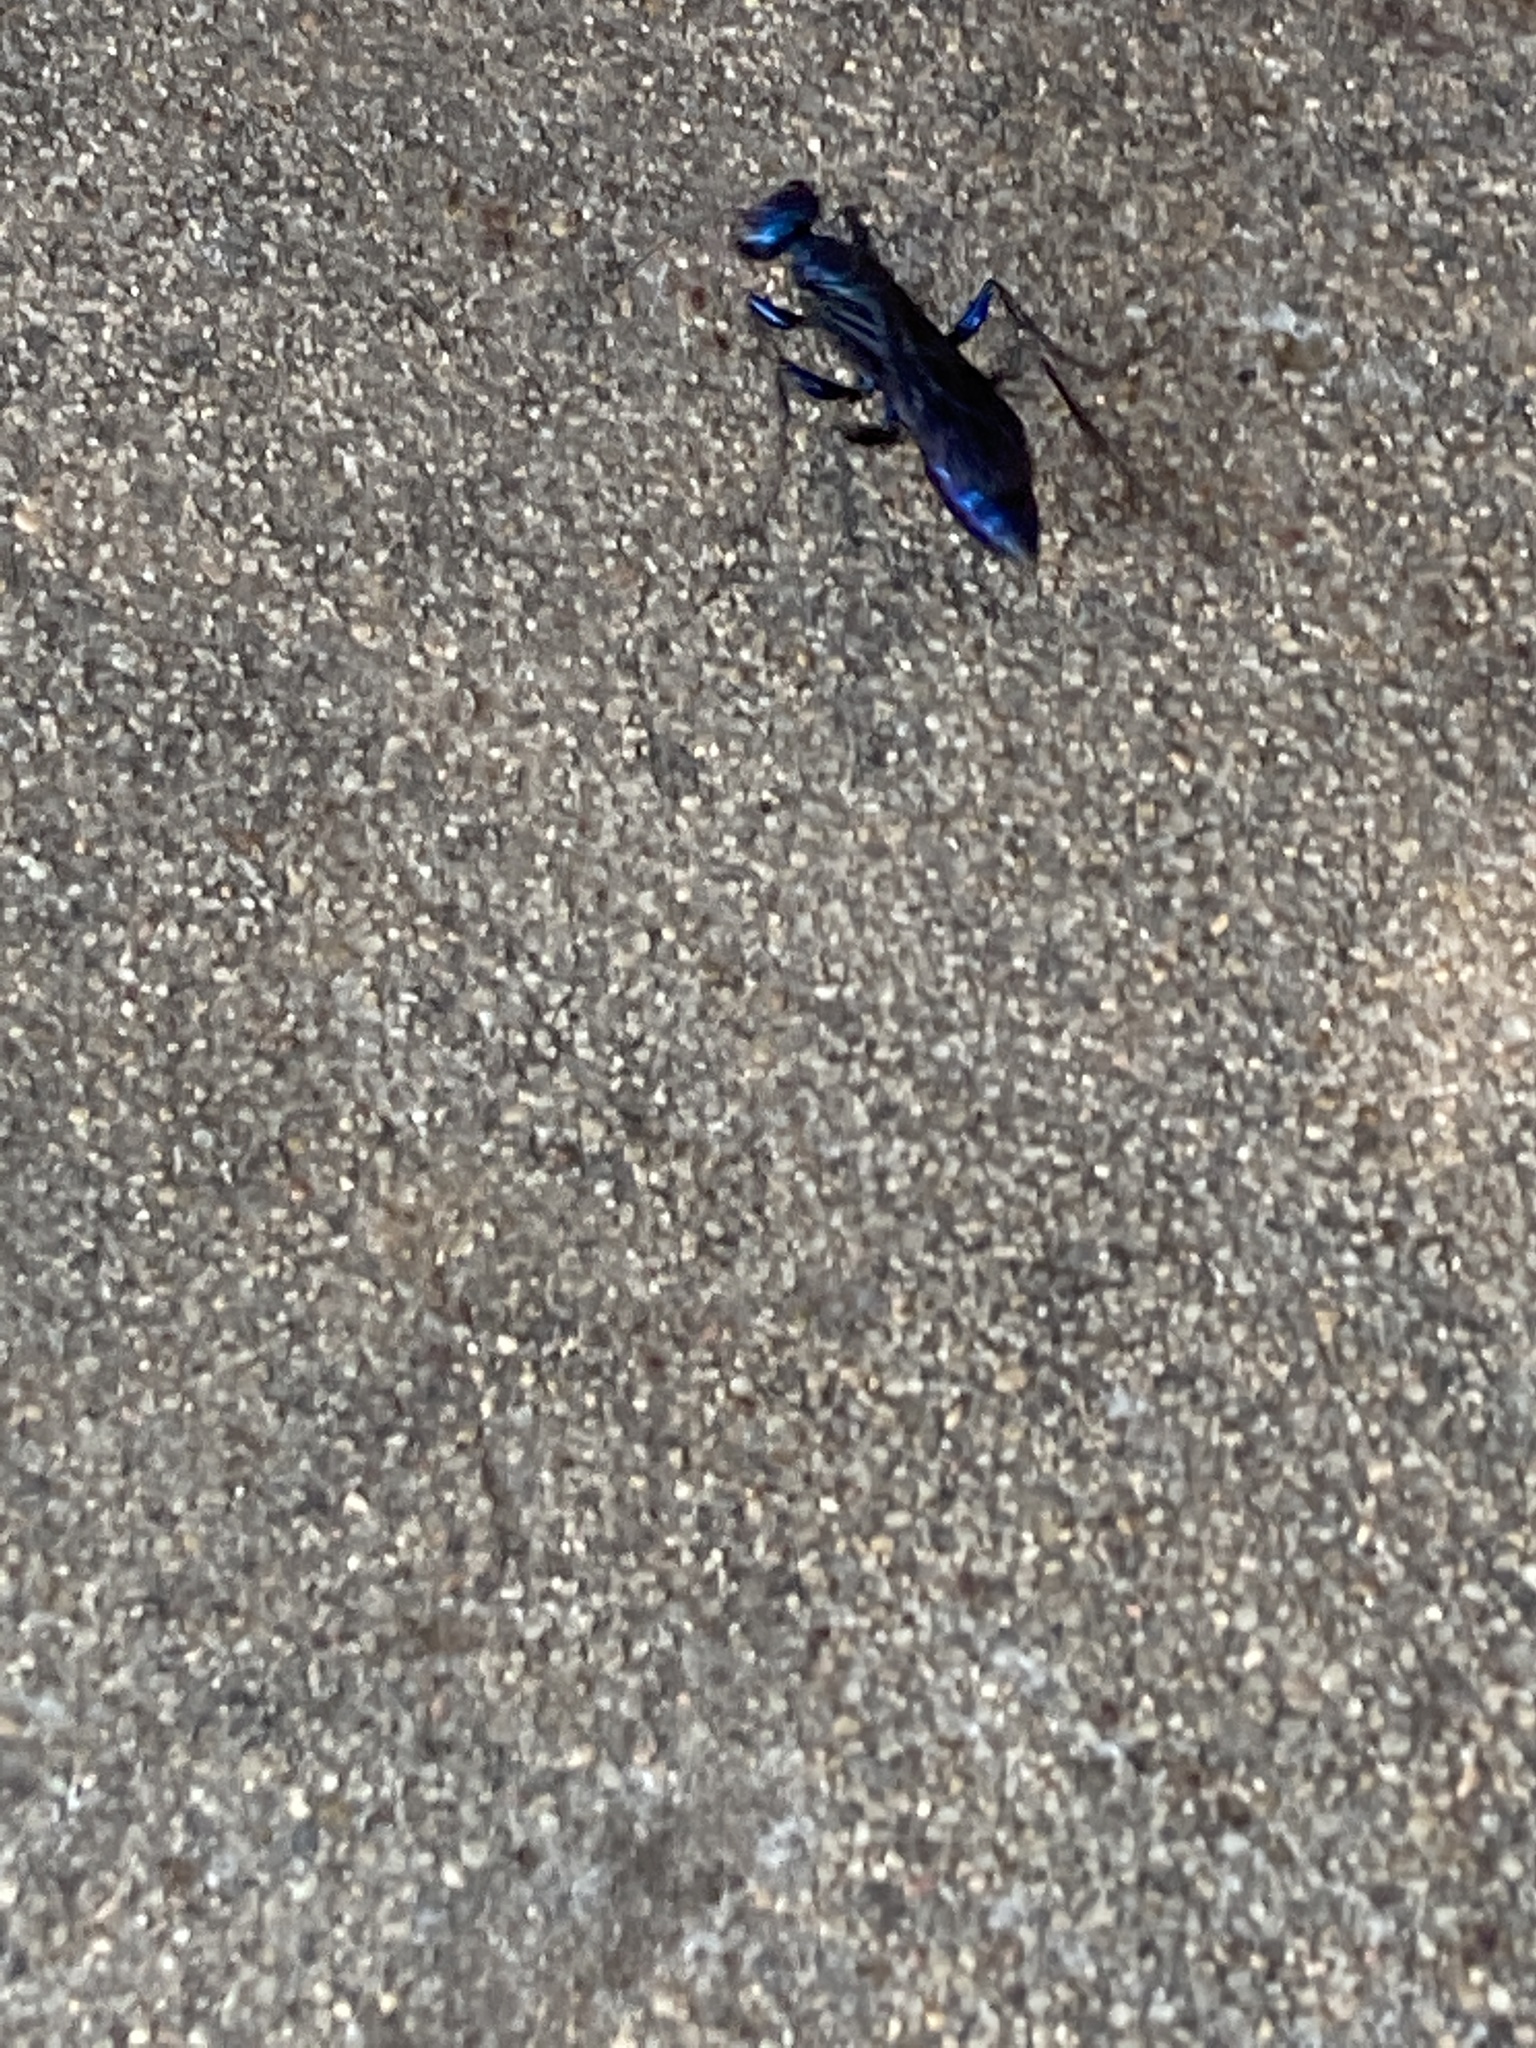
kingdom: Animalia
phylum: Arthropoda
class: Insecta
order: Hymenoptera
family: Sphecidae
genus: Chlorion
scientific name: Chlorion aerarium
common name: Steel-blue cricket hunter
